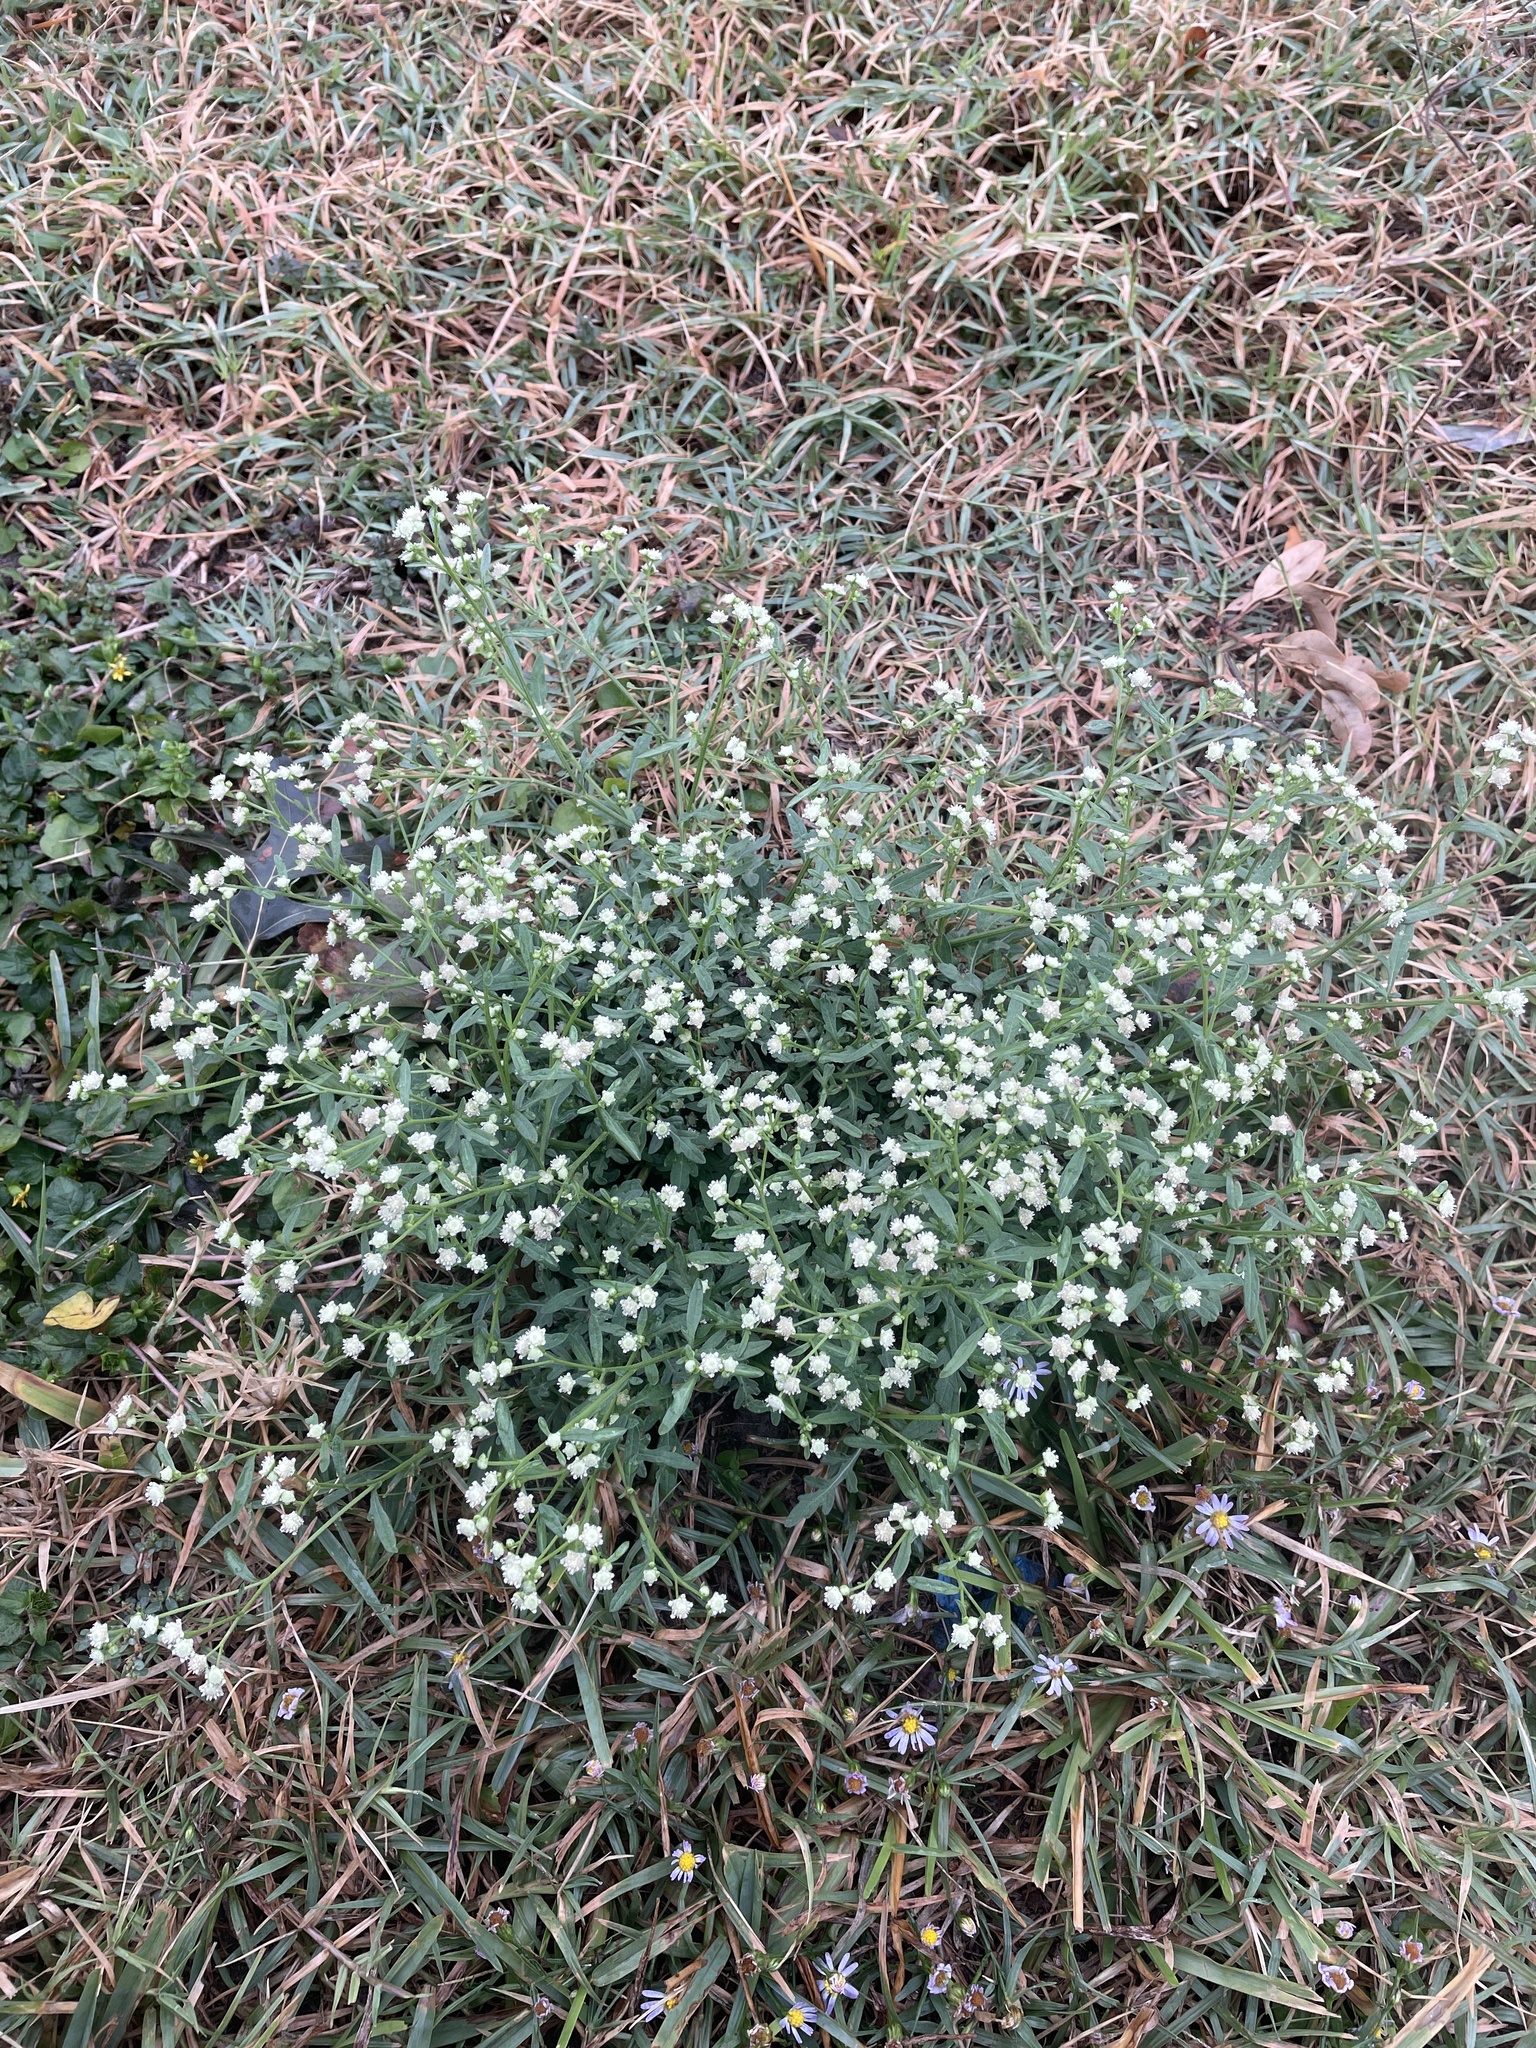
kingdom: Plantae
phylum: Tracheophyta
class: Magnoliopsida
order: Asterales
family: Asteraceae
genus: Parthenium
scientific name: Parthenium hysterophorus
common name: Santa maria feverfew
